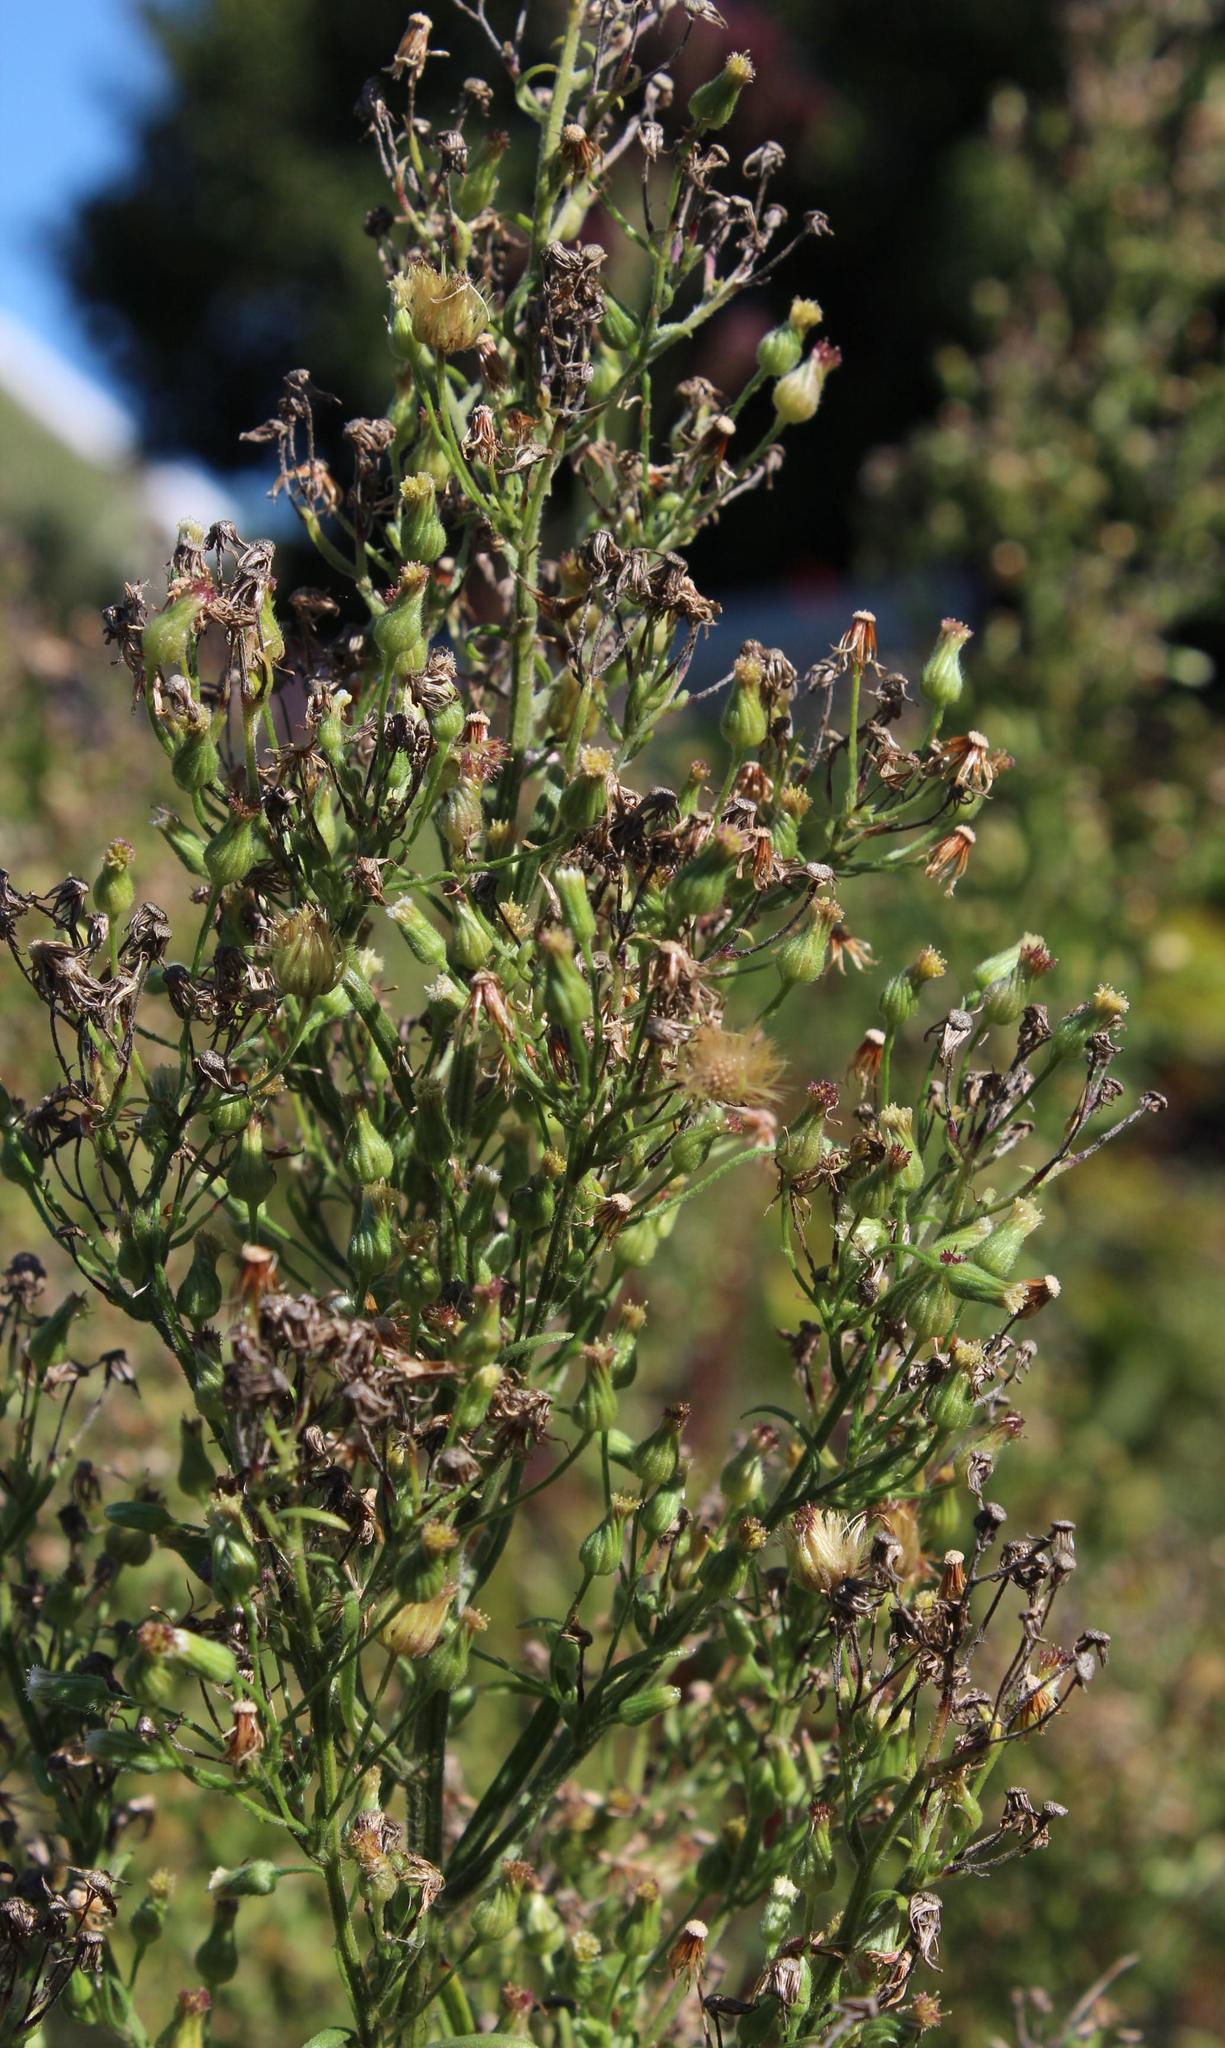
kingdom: Plantae
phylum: Tracheophyta
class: Magnoliopsida
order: Asterales
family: Asteraceae
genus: Erigeron
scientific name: Erigeron sumatrensis
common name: Daisy
